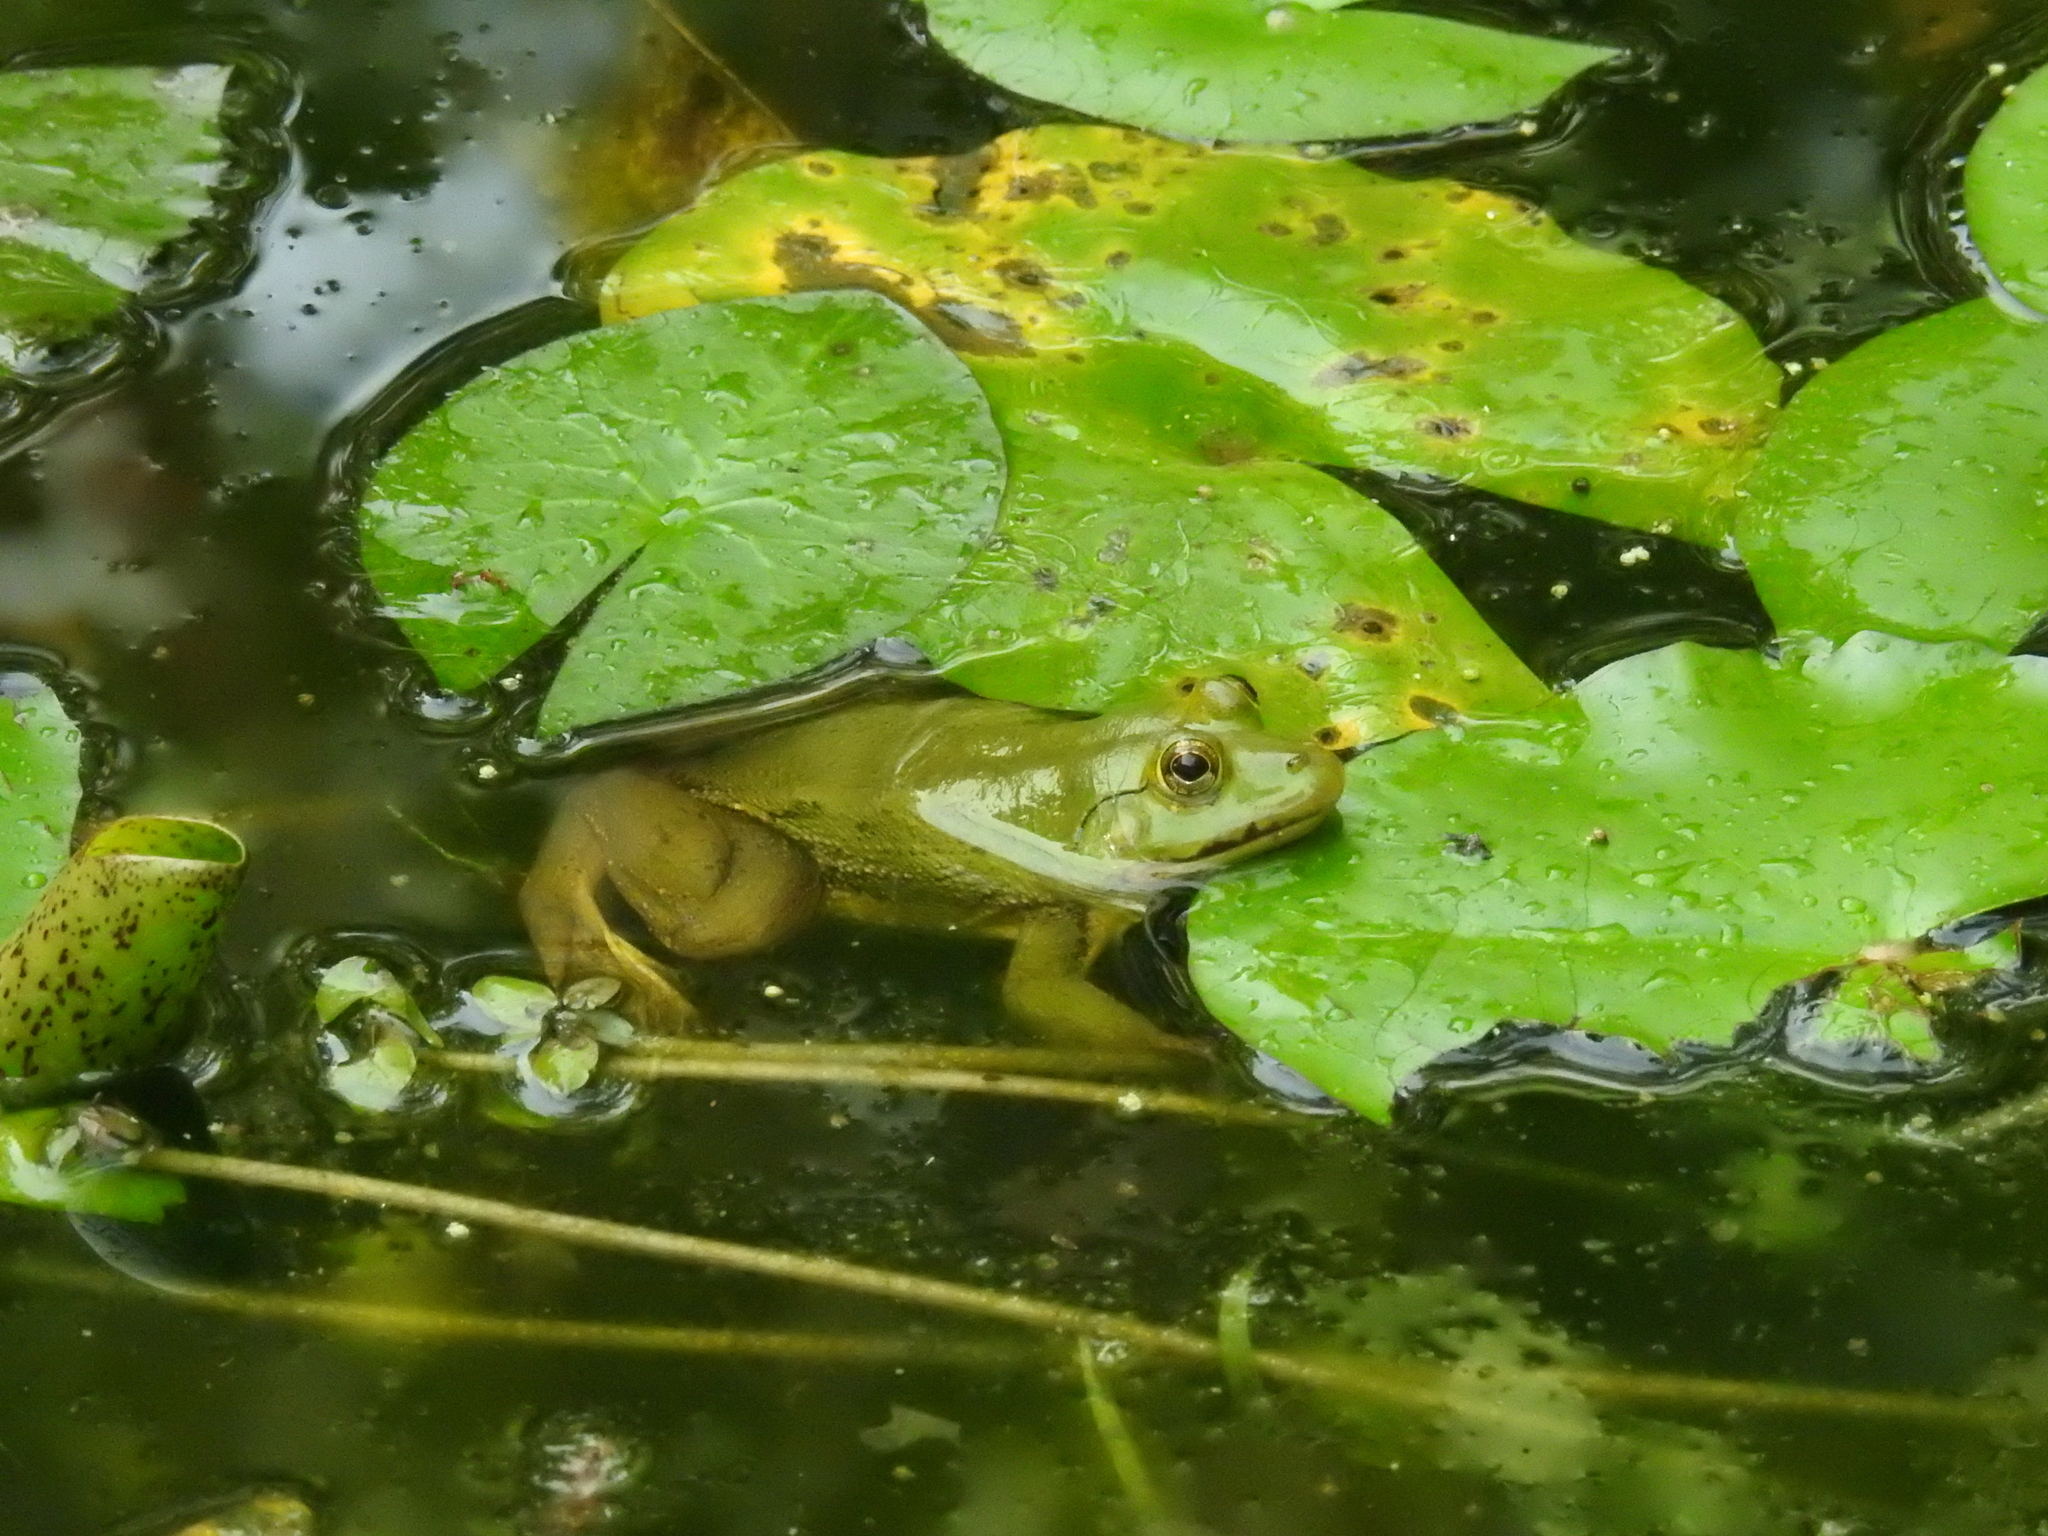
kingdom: Animalia
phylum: Chordata
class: Amphibia
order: Anura
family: Dicroglossidae
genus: Euphlyctis
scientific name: Euphlyctis hexadactylus
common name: Indian green frog
